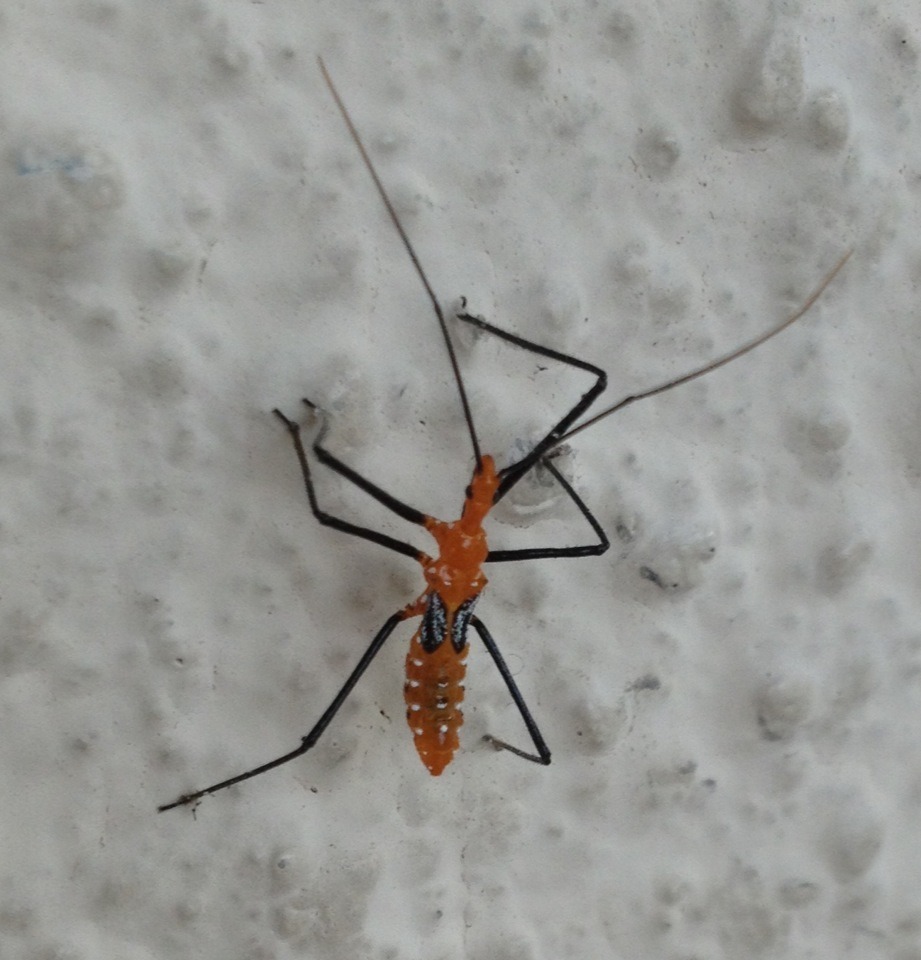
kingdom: Animalia
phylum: Arthropoda
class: Insecta
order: Hemiptera
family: Reduviidae
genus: Zelus
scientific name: Zelus longipes
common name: Milkweed assassin bug
